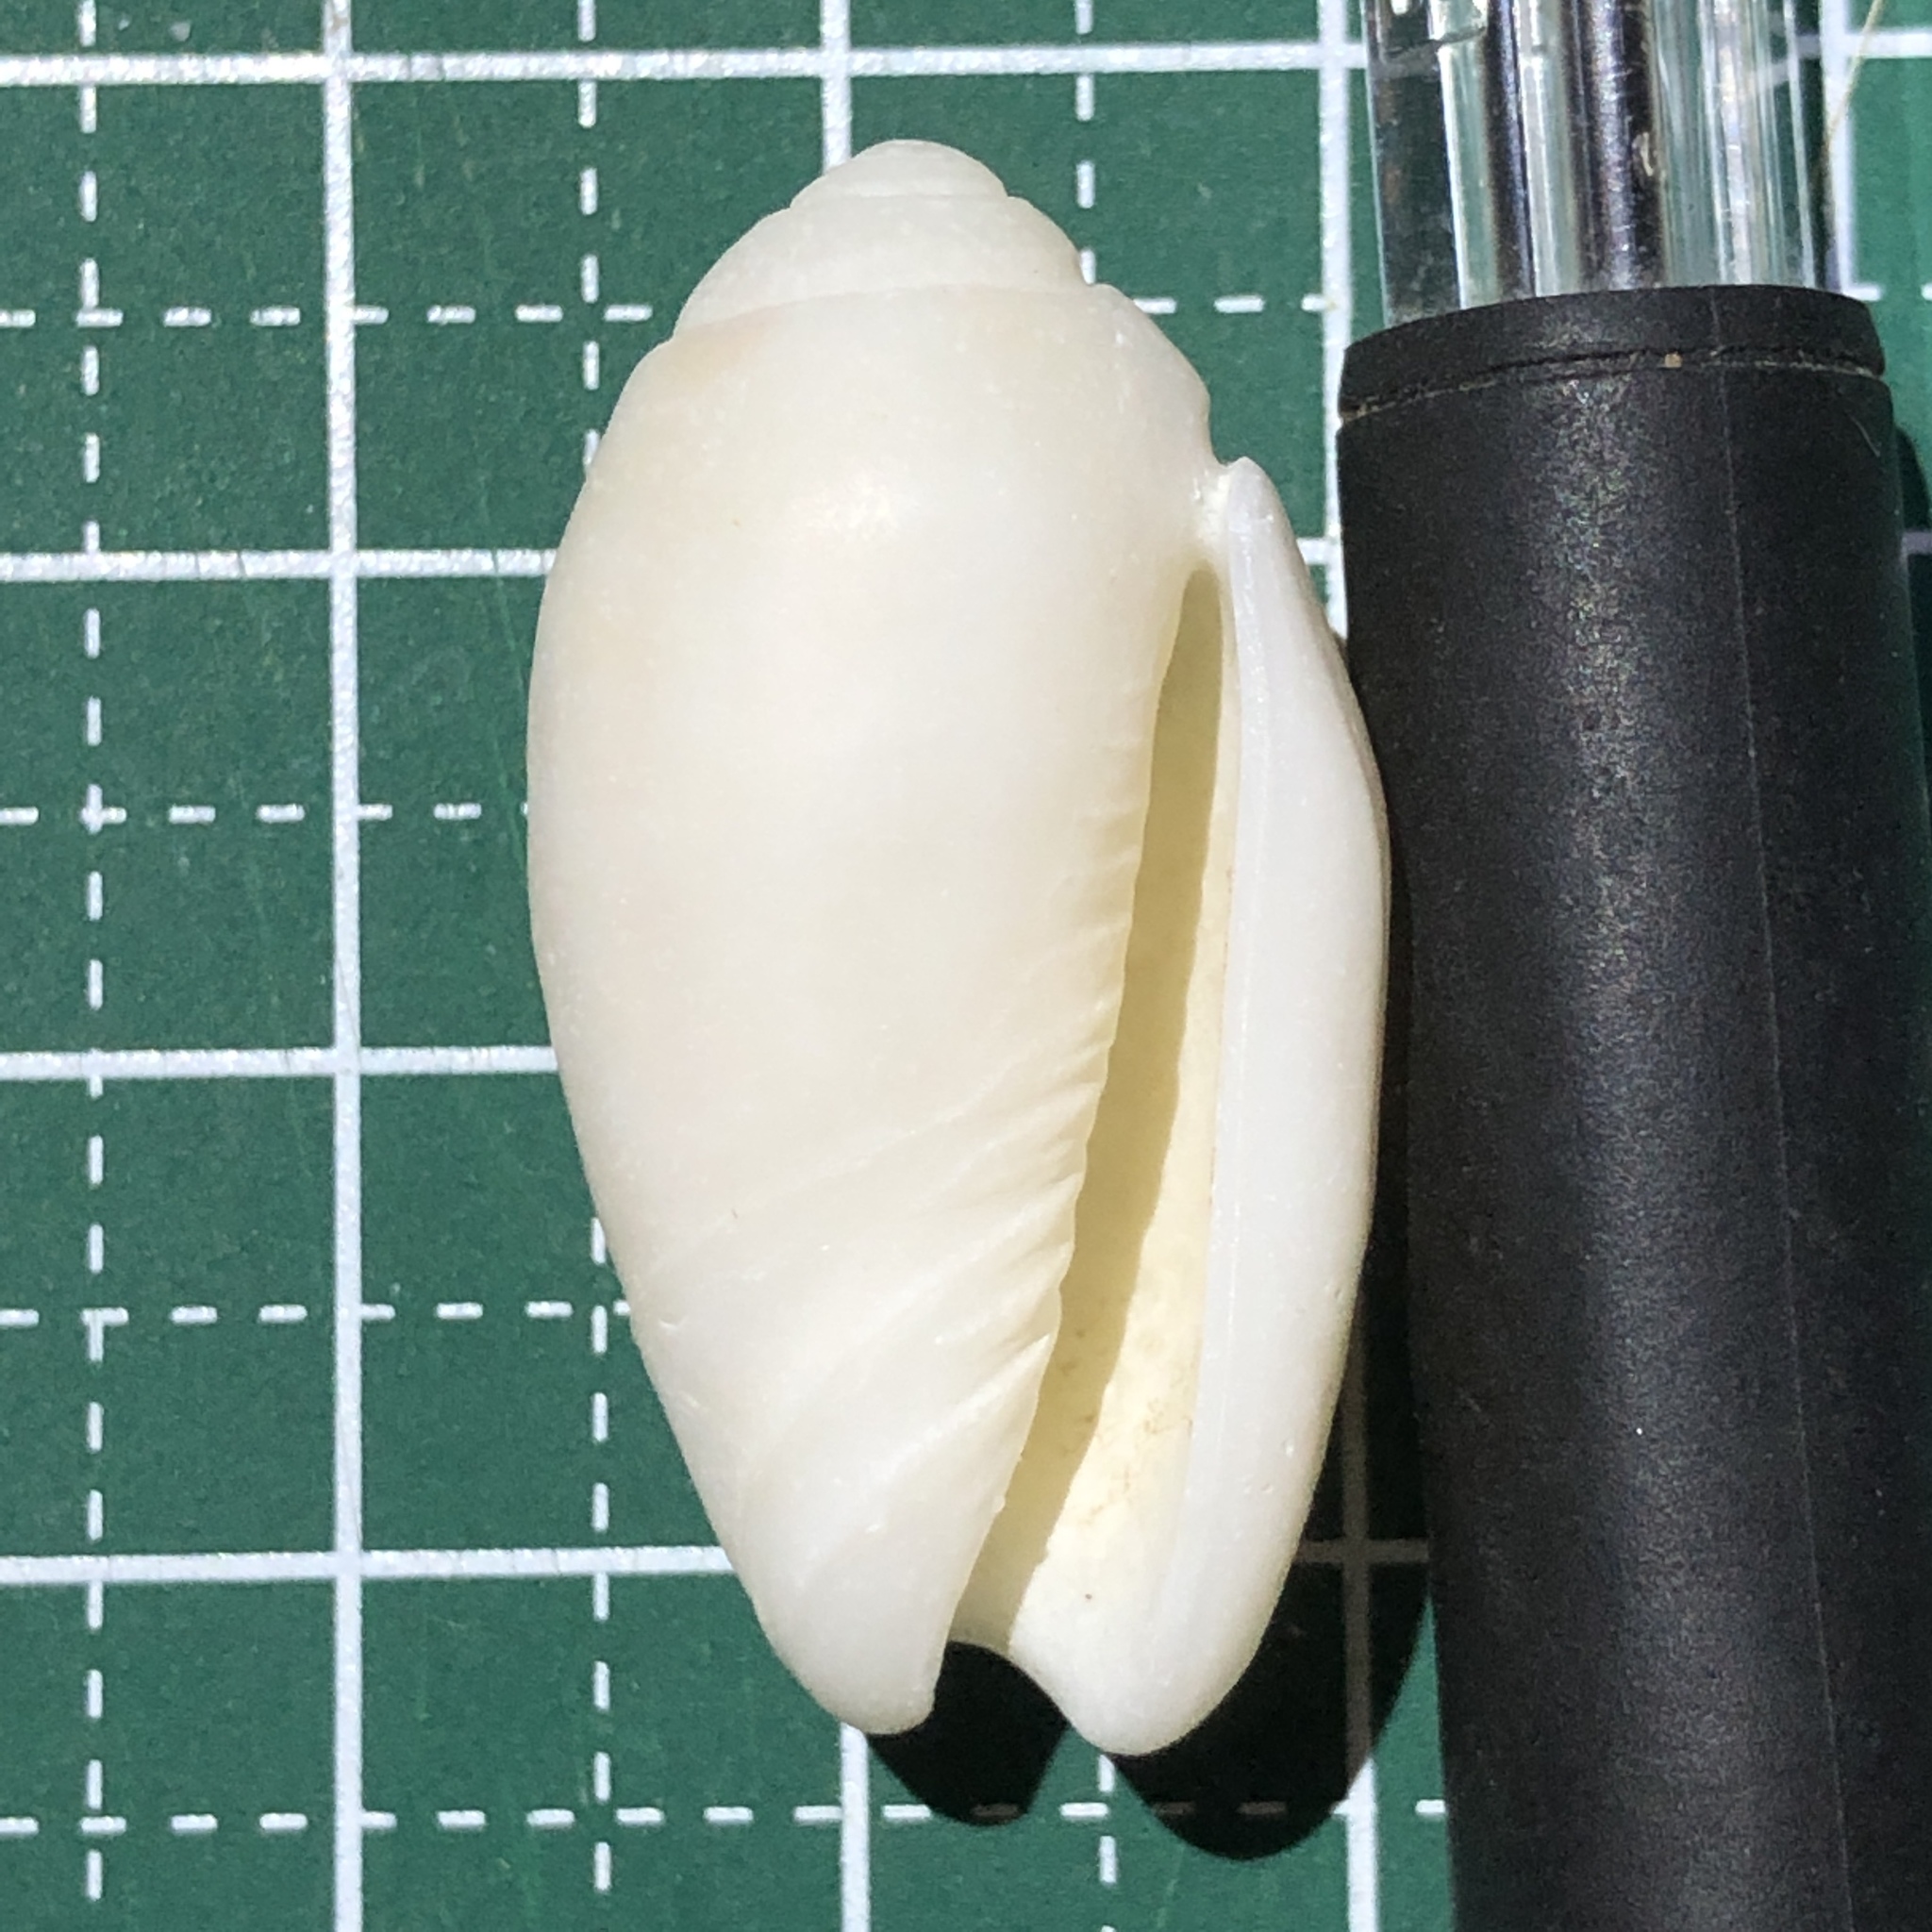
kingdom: Animalia
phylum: Mollusca
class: Gastropoda
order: Neogastropoda
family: Olividae
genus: Oliva
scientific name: Oliva amethystina
